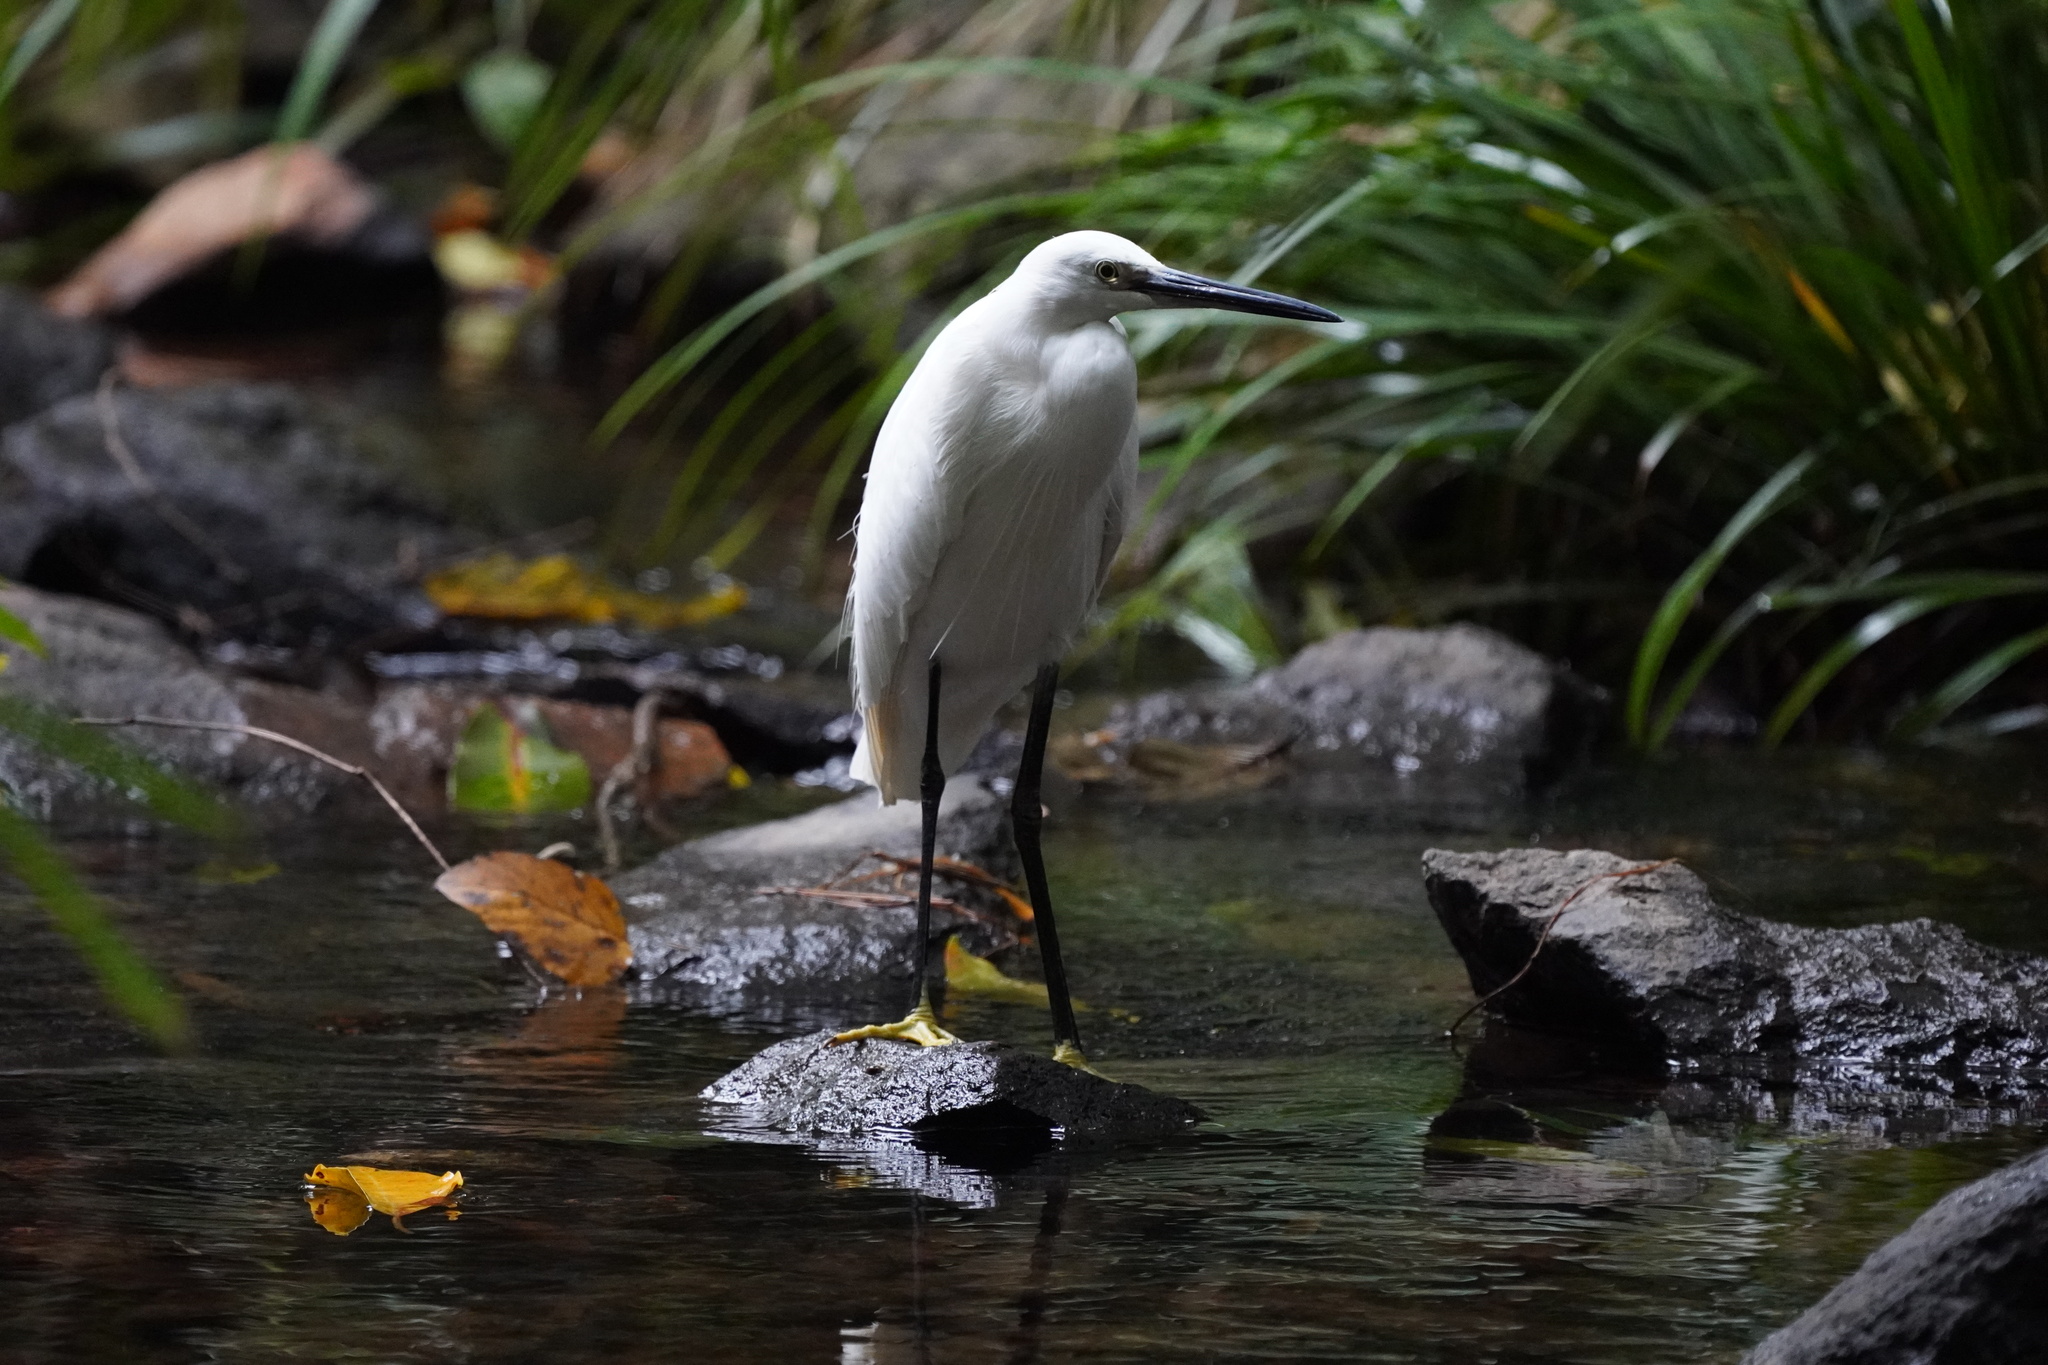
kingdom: Animalia
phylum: Chordata
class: Aves
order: Pelecaniformes
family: Ardeidae
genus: Egretta
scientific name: Egretta garzetta
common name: Little egret
